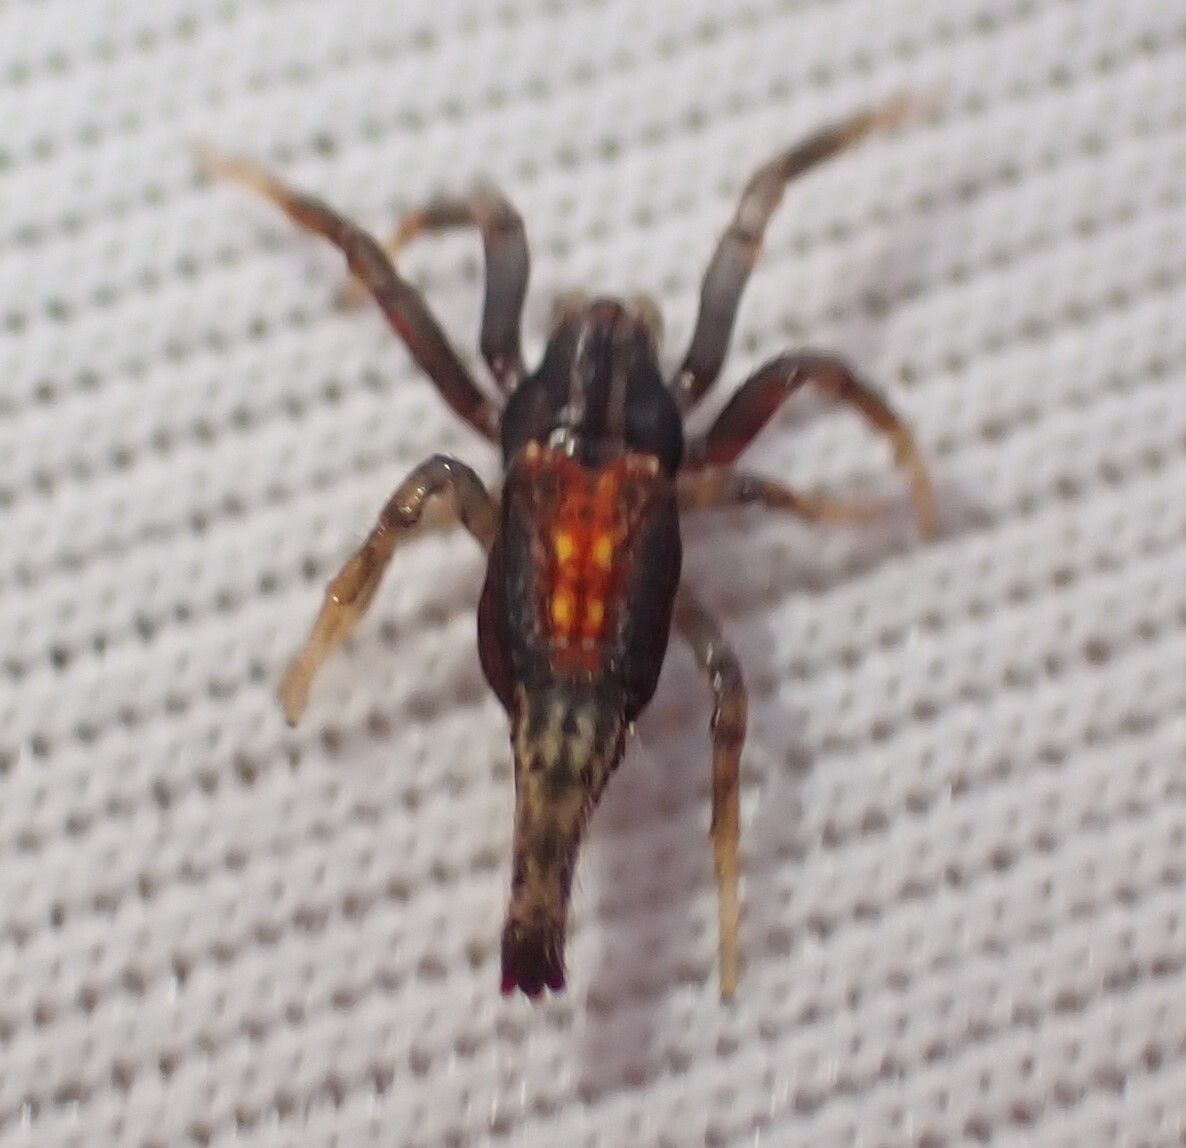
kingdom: Animalia
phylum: Arthropoda
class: Arachnida
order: Araneae
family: Araneidae
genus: Arachnura
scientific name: Arachnura higginsi
